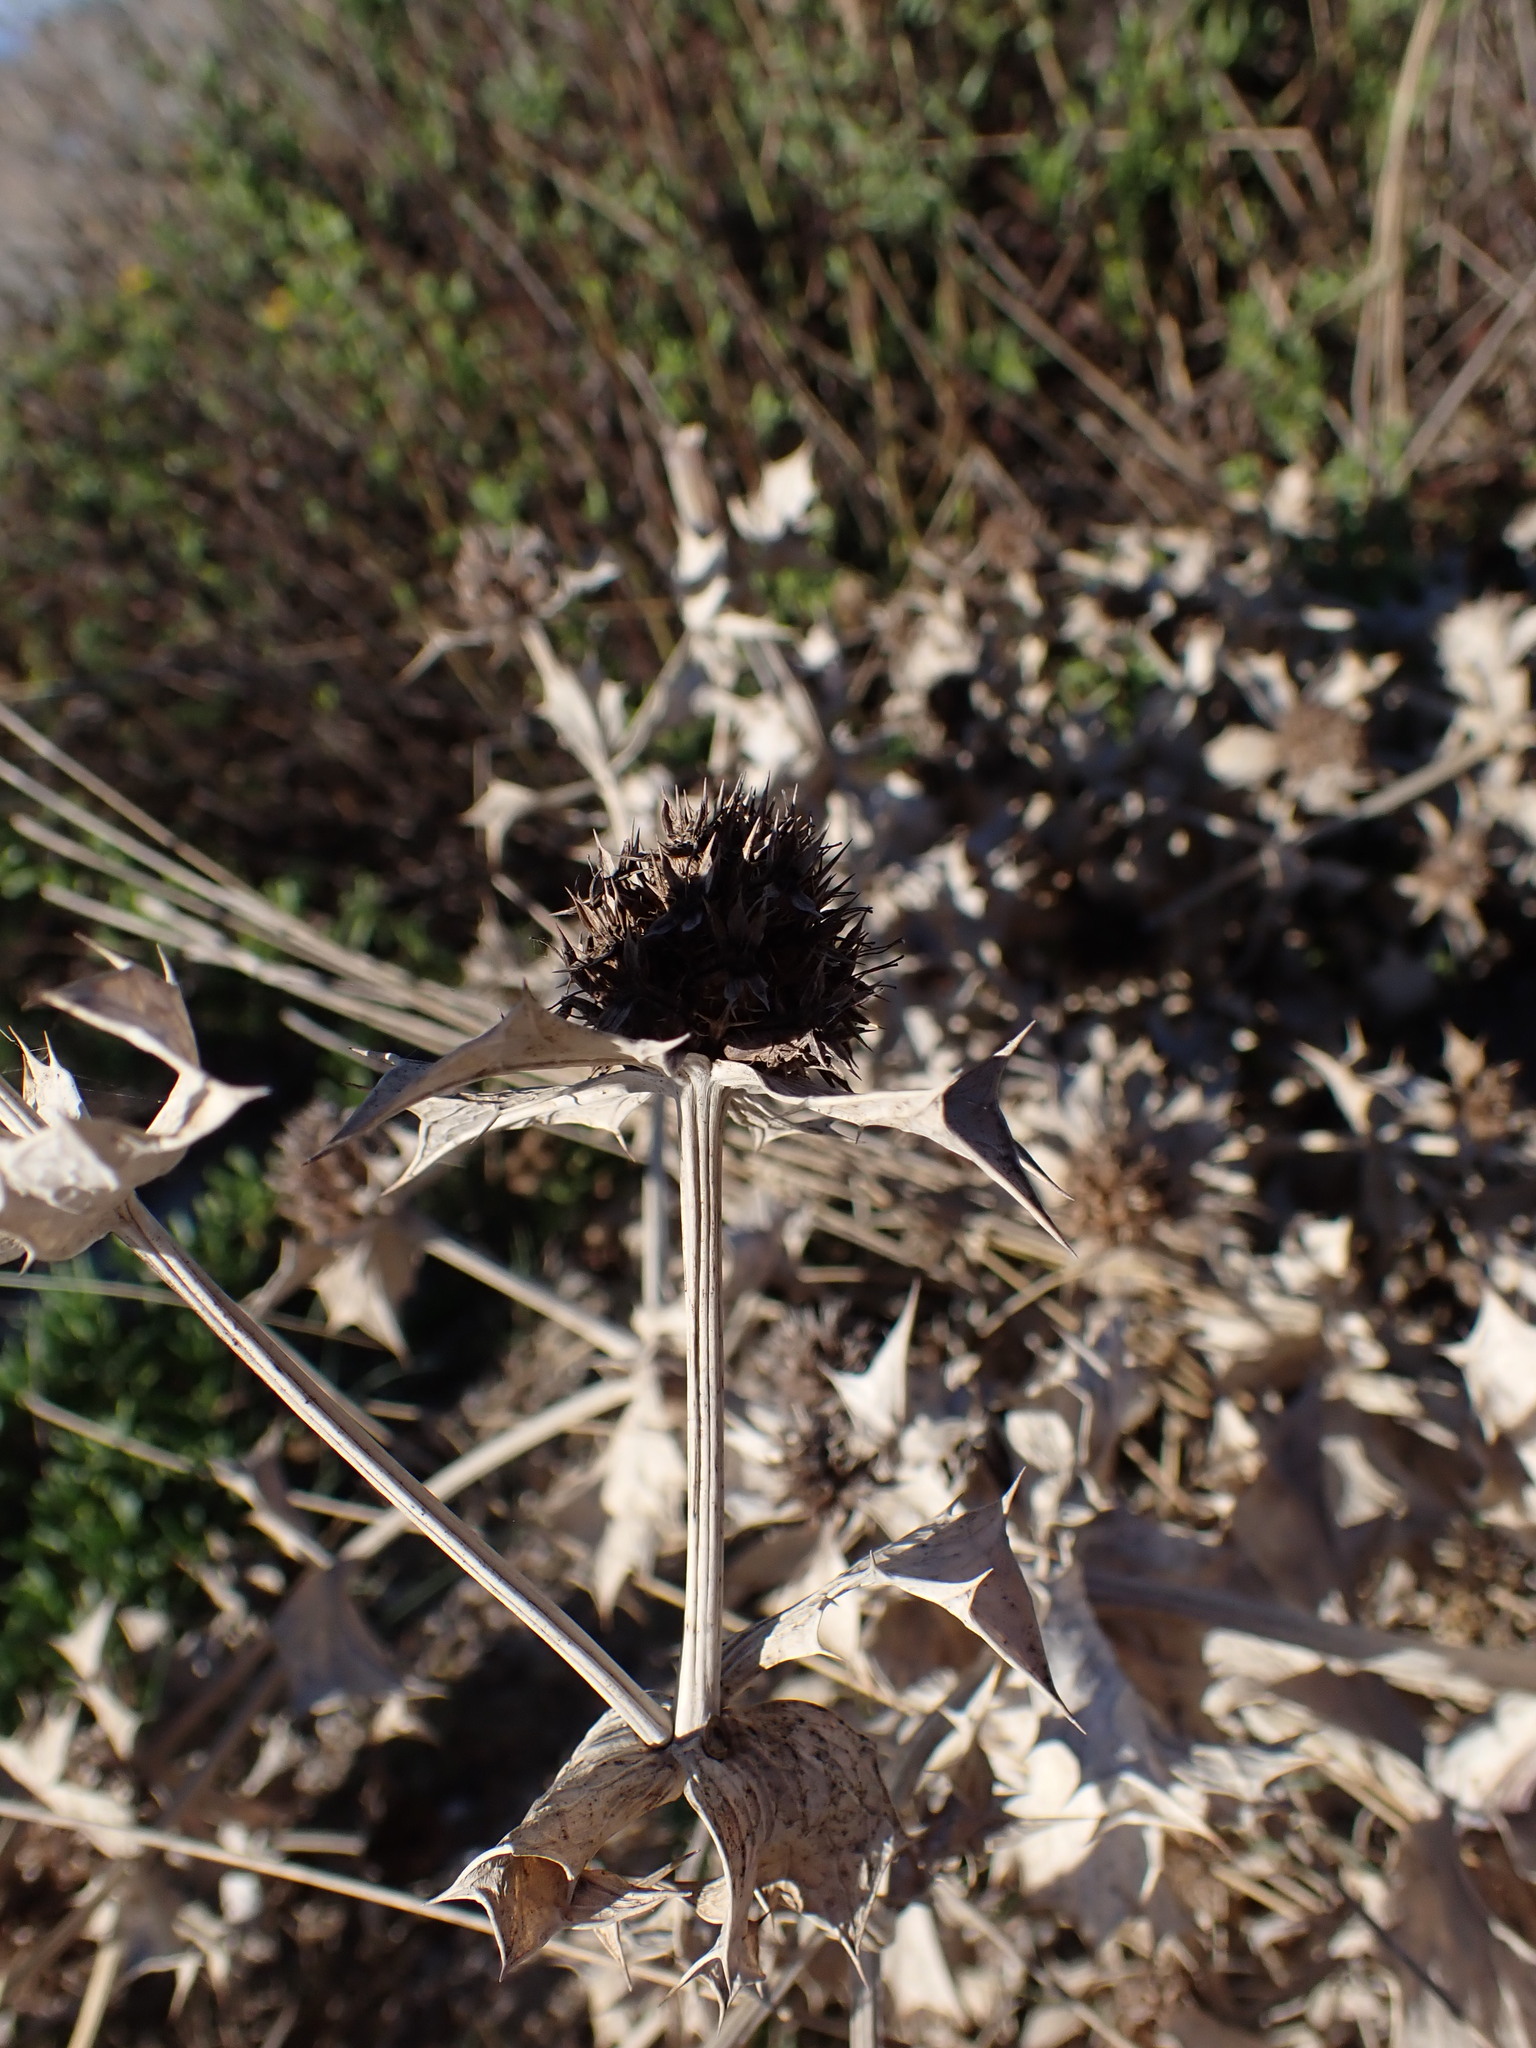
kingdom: Plantae
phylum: Tracheophyta
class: Magnoliopsida
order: Apiales
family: Apiaceae
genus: Eryngium
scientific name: Eryngium maritimum
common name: Sea-holly
